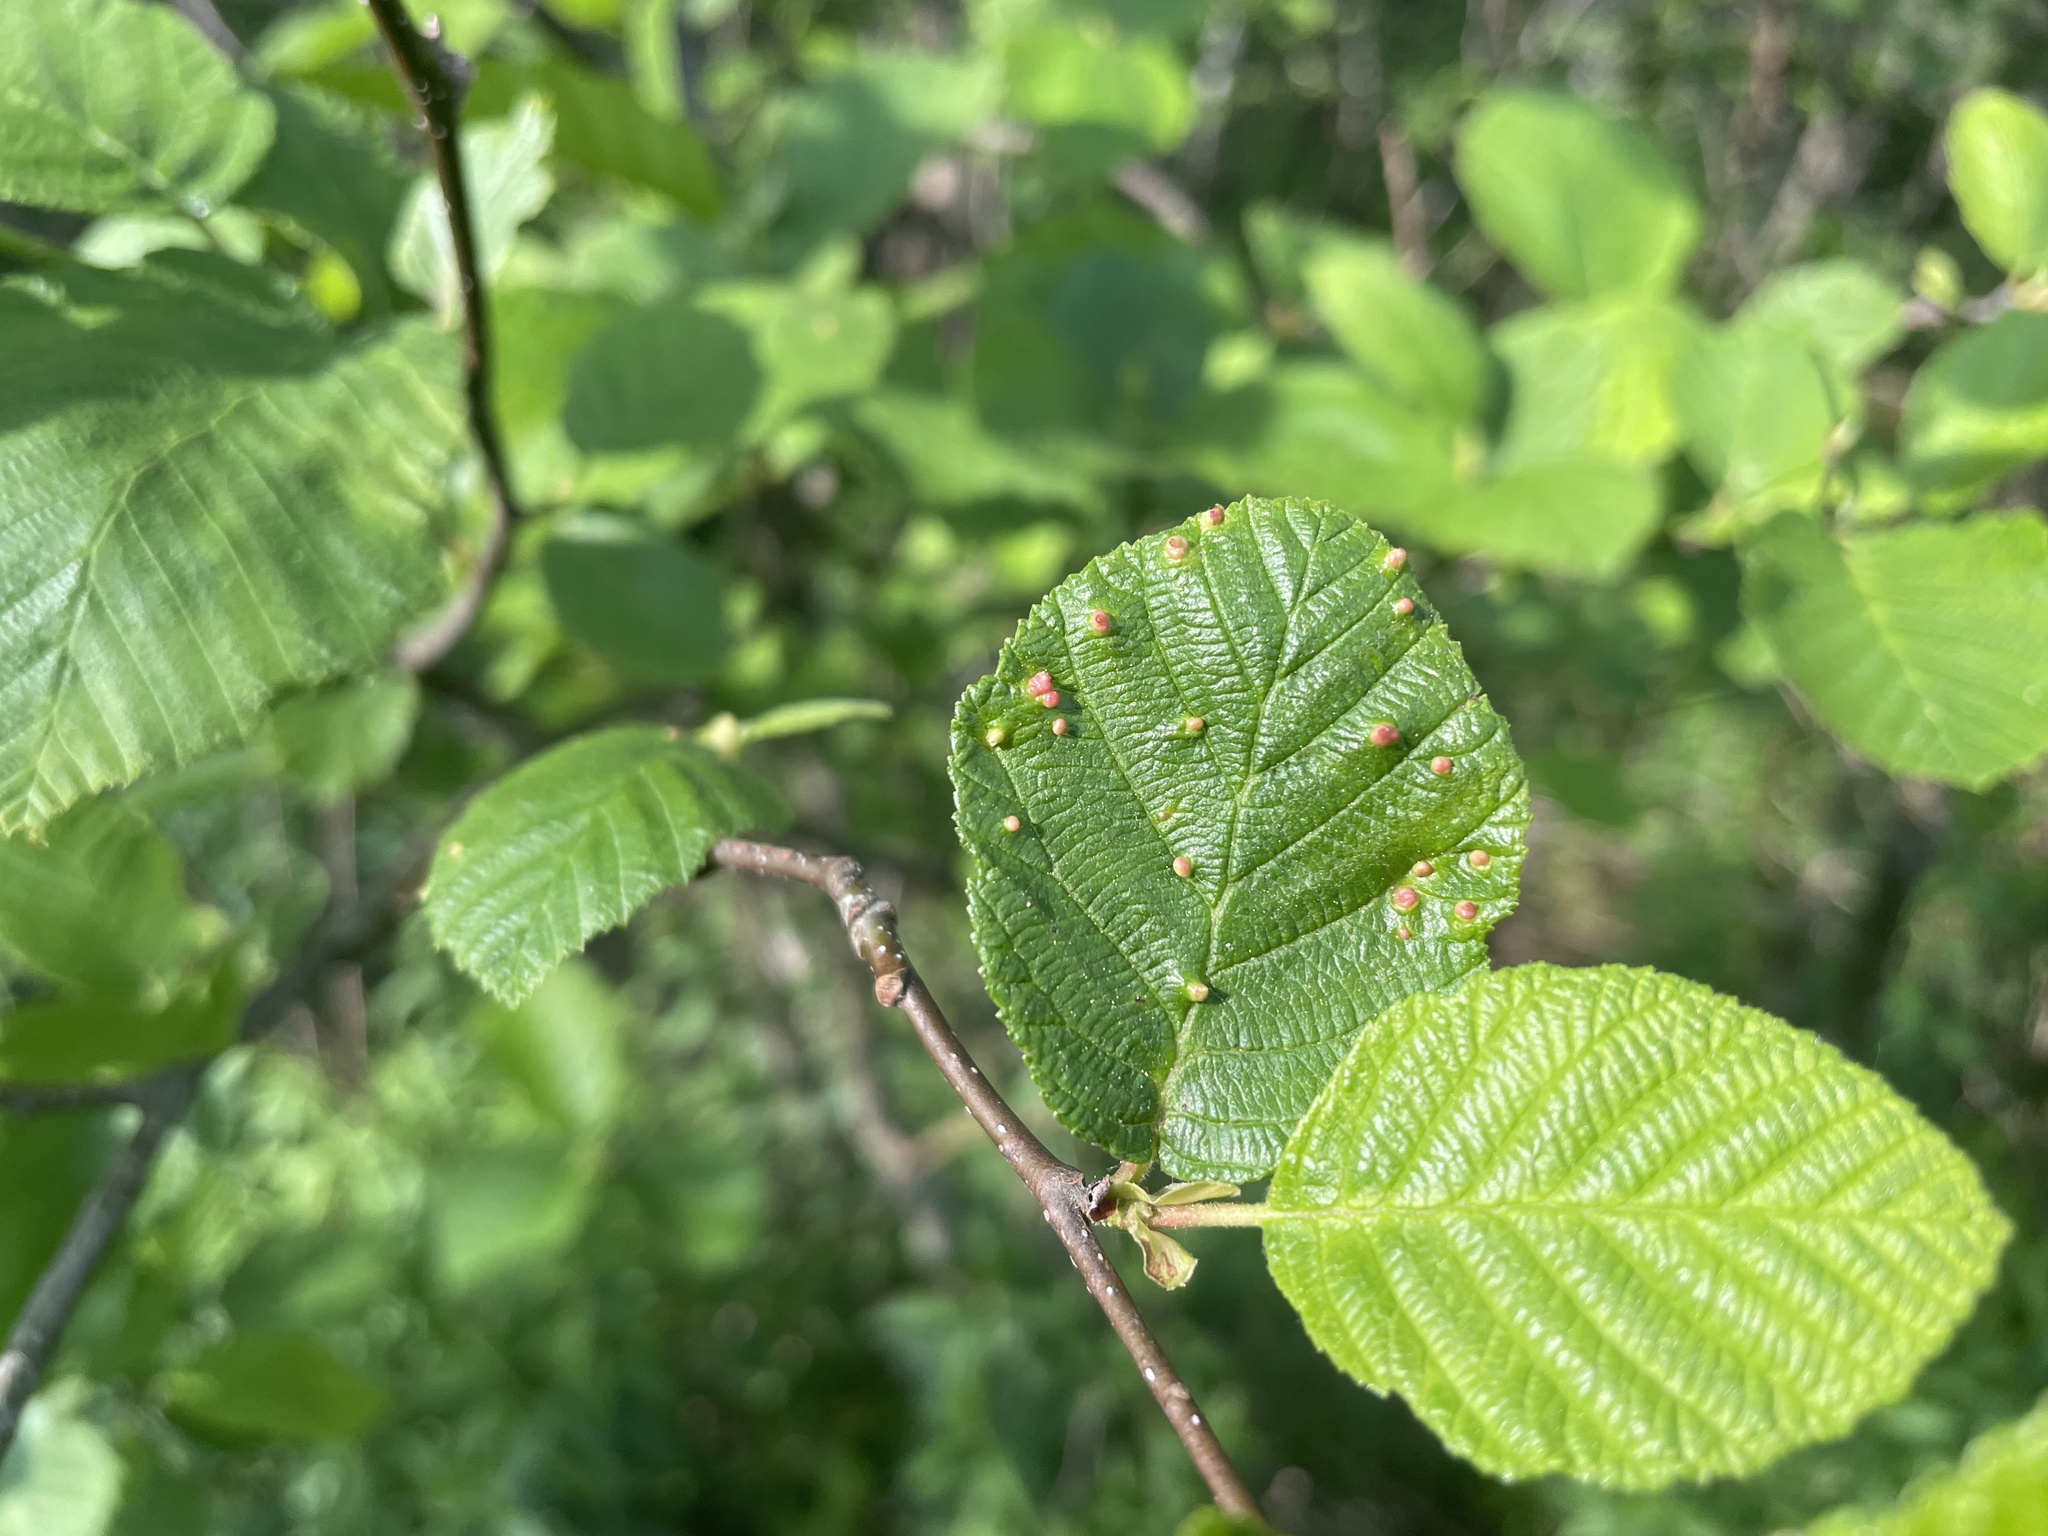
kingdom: Animalia
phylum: Arthropoda
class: Arachnida
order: Trombidiformes
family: Eriophyidae
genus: Eriophyes
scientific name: Eriophyes laevis
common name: Alder leaf gall mite
